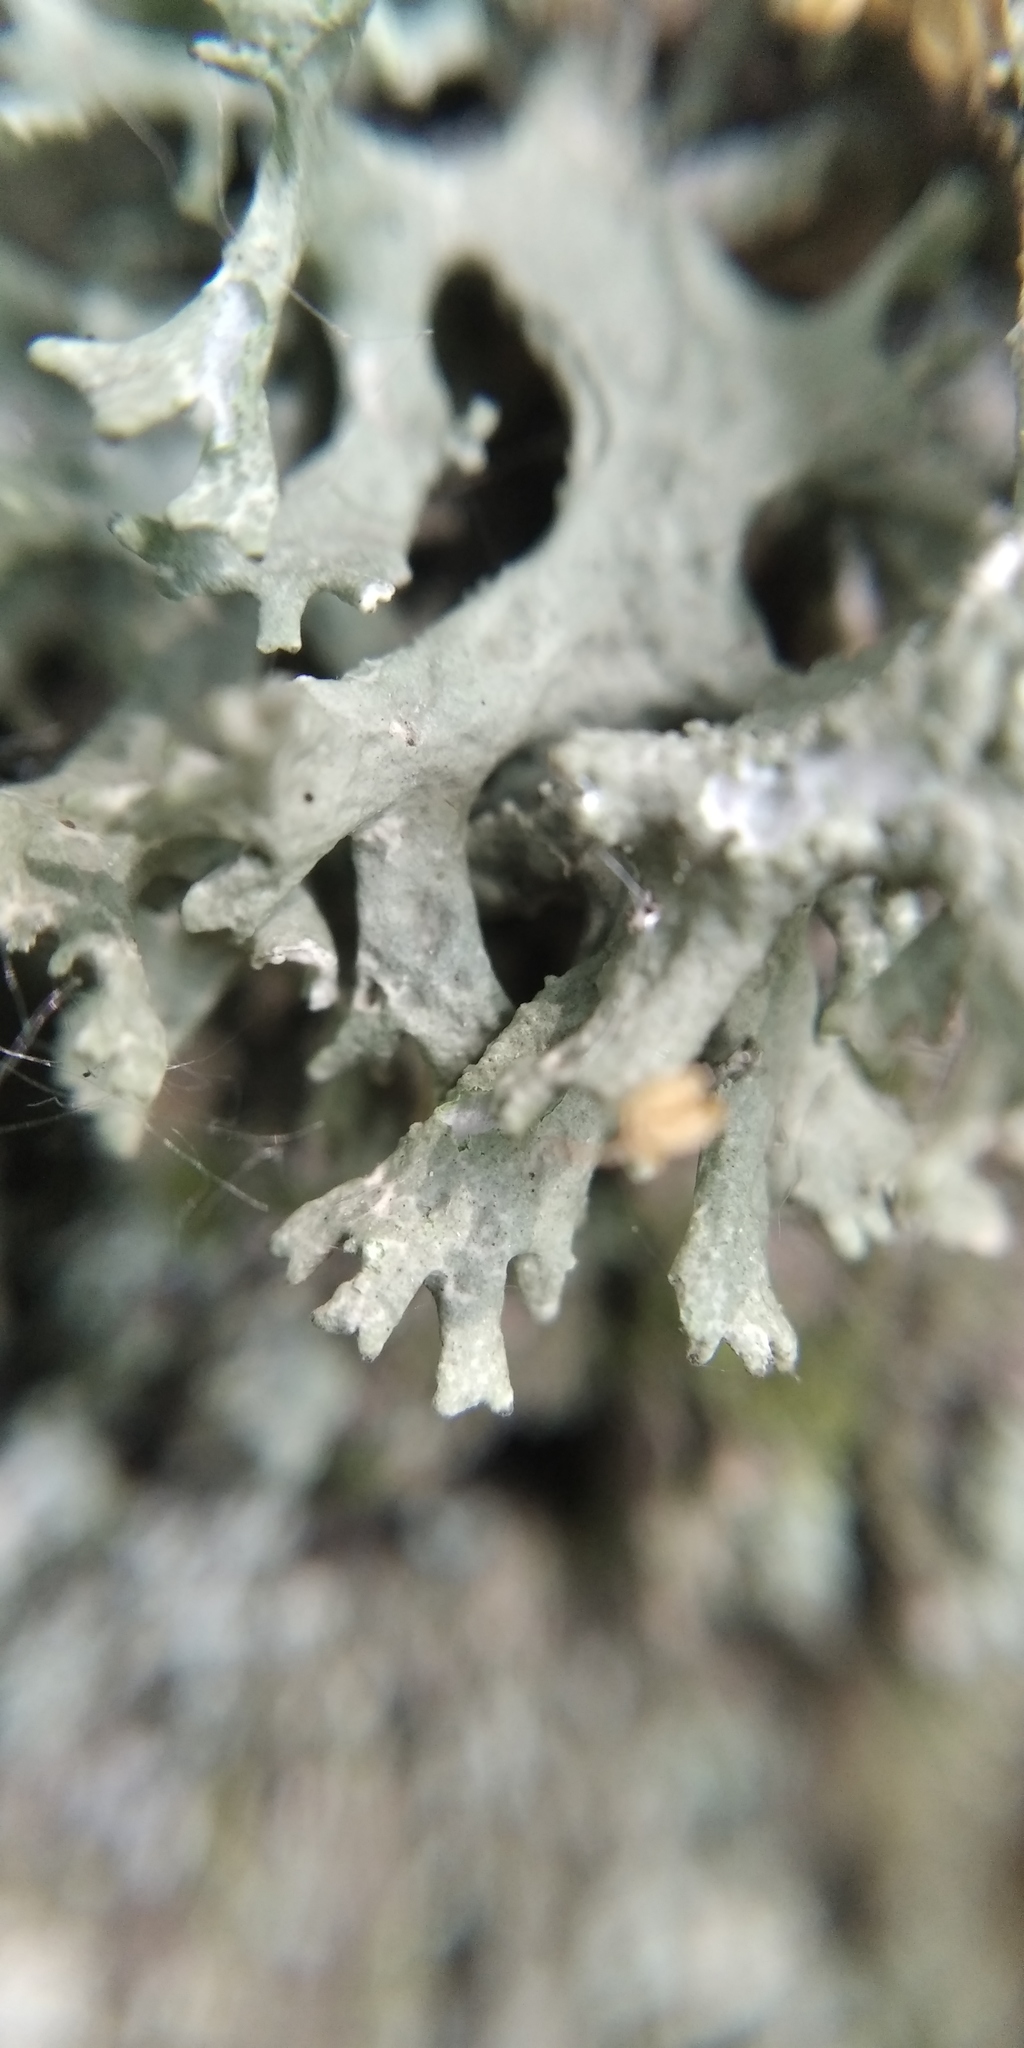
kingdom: Fungi
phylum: Ascomycota
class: Lecanoromycetes
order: Lecanorales
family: Parmeliaceae
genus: Evernia
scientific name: Evernia prunastri
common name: Oak moss
